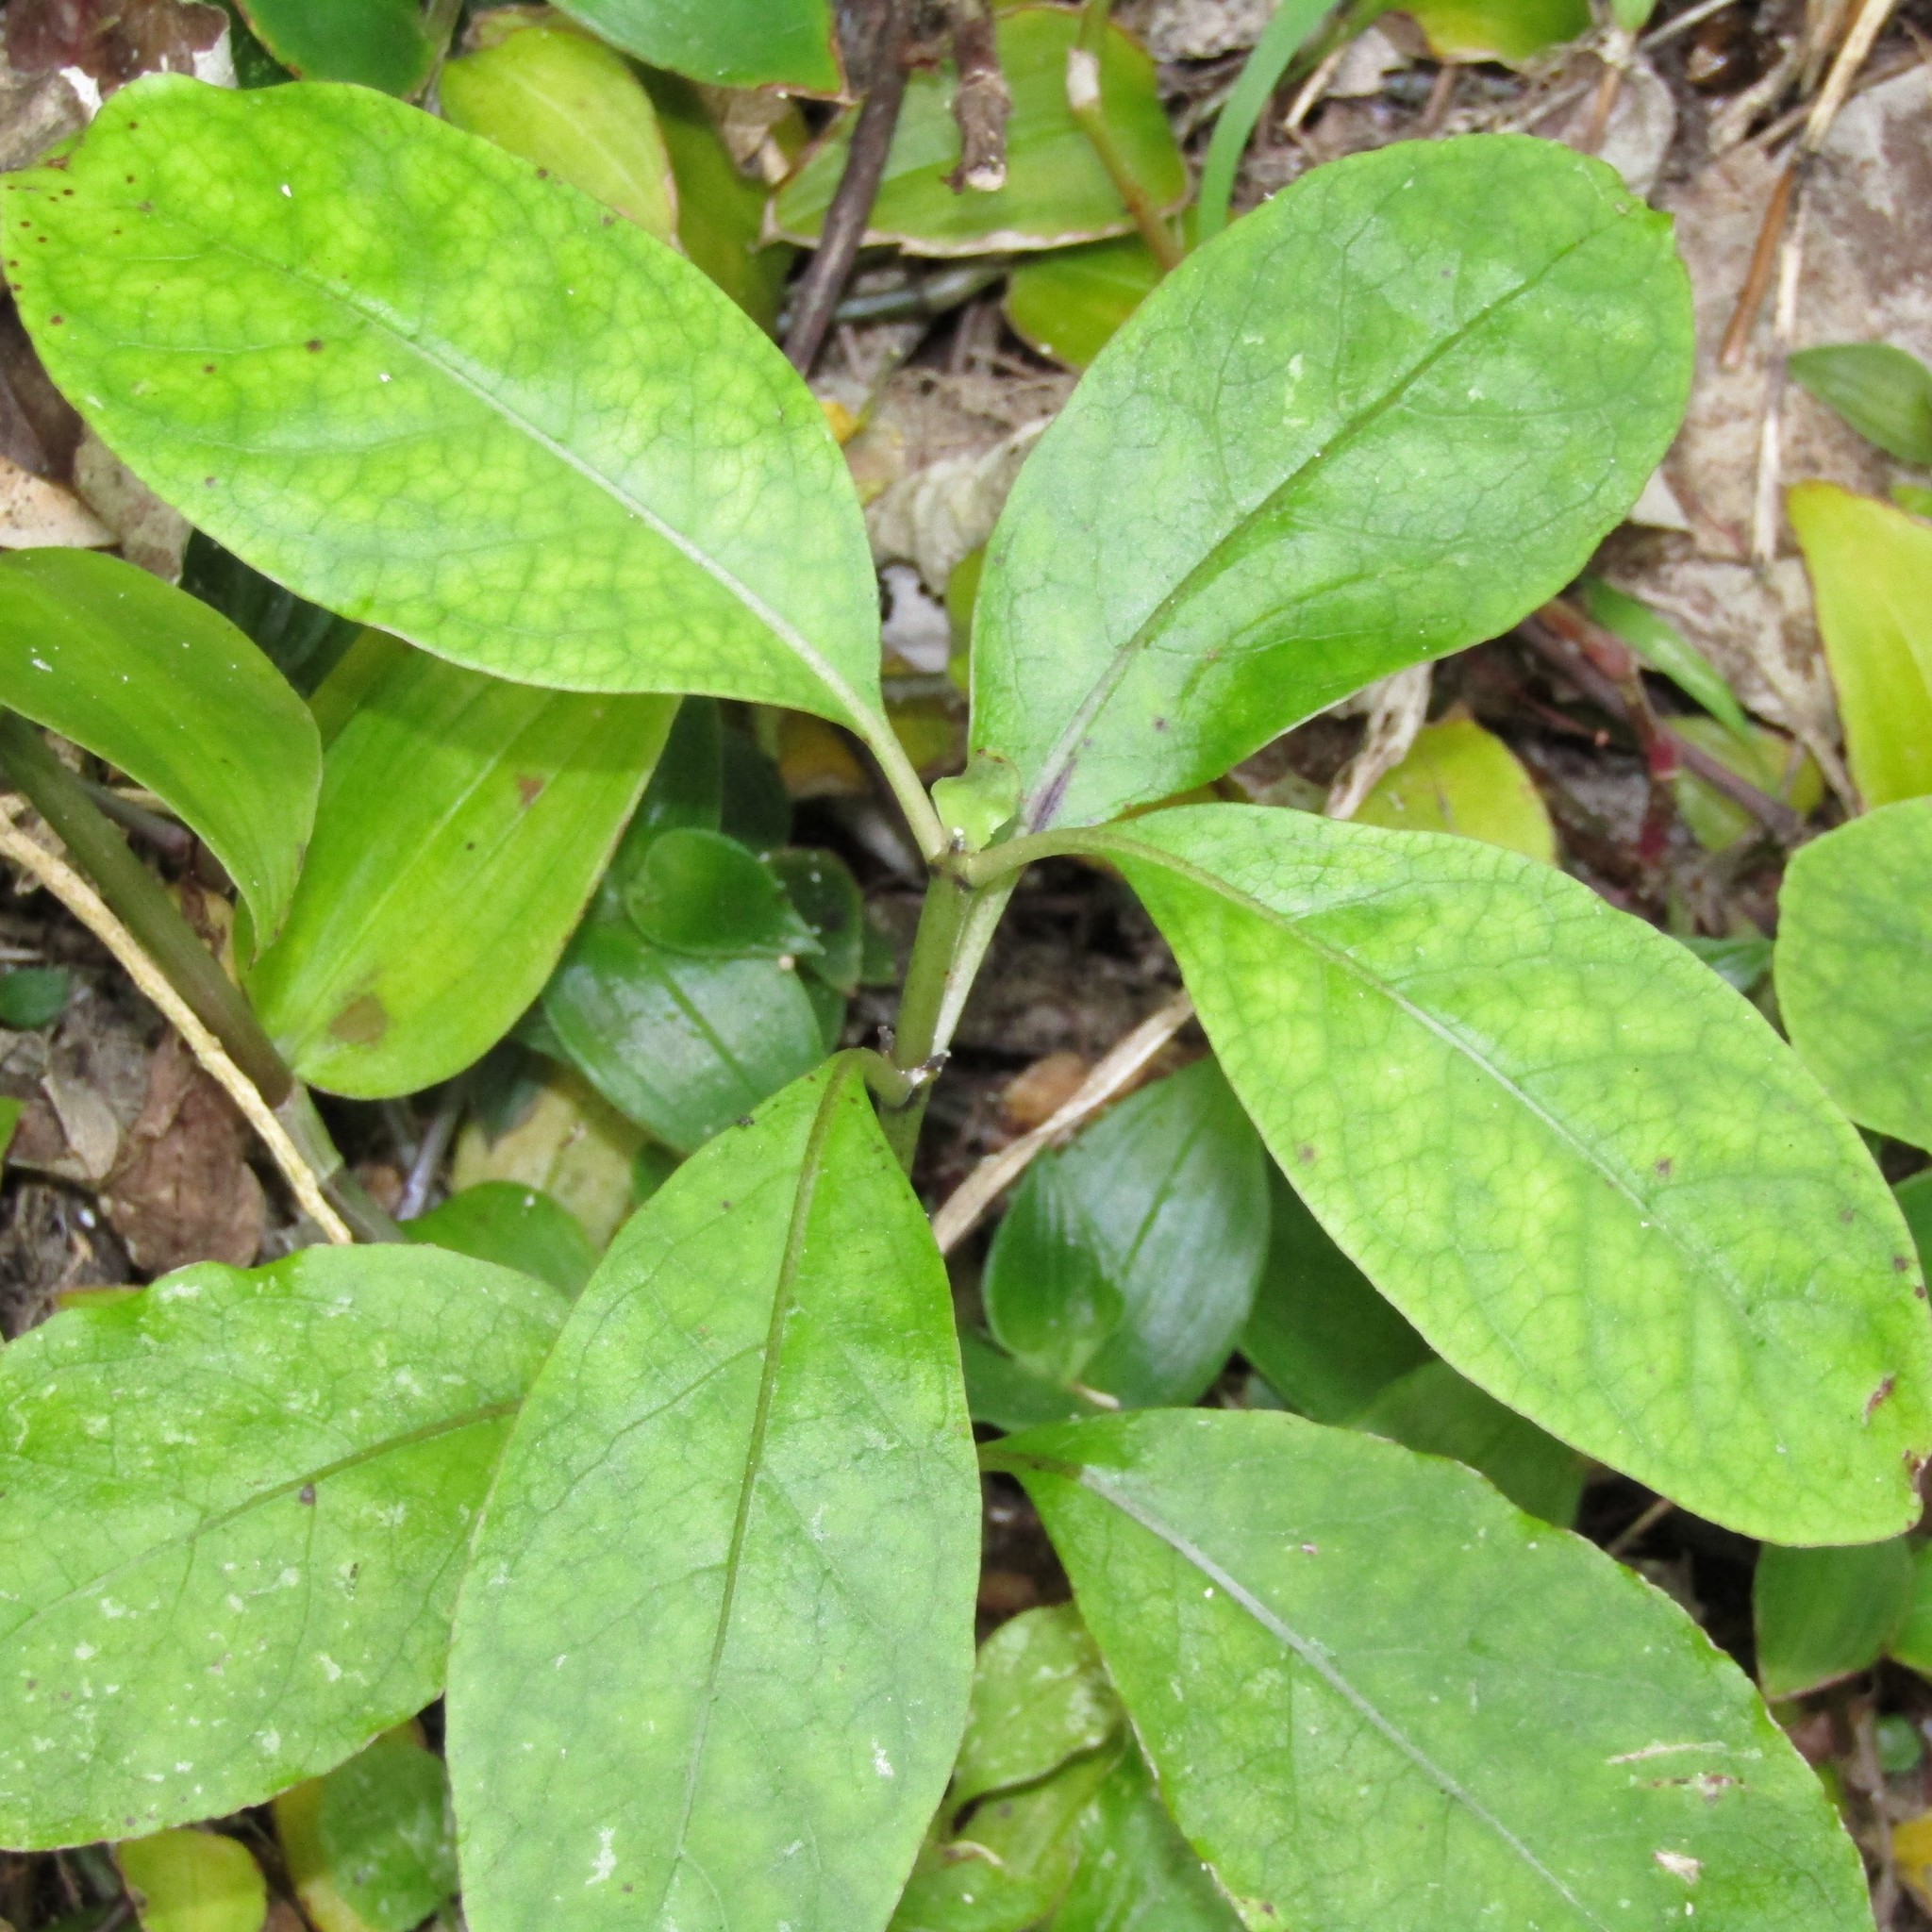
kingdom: Plantae
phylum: Tracheophyta
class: Magnoliopsida
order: Gentianales
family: Rubiaceae
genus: Coprosma
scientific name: Coprosma autumnalis
